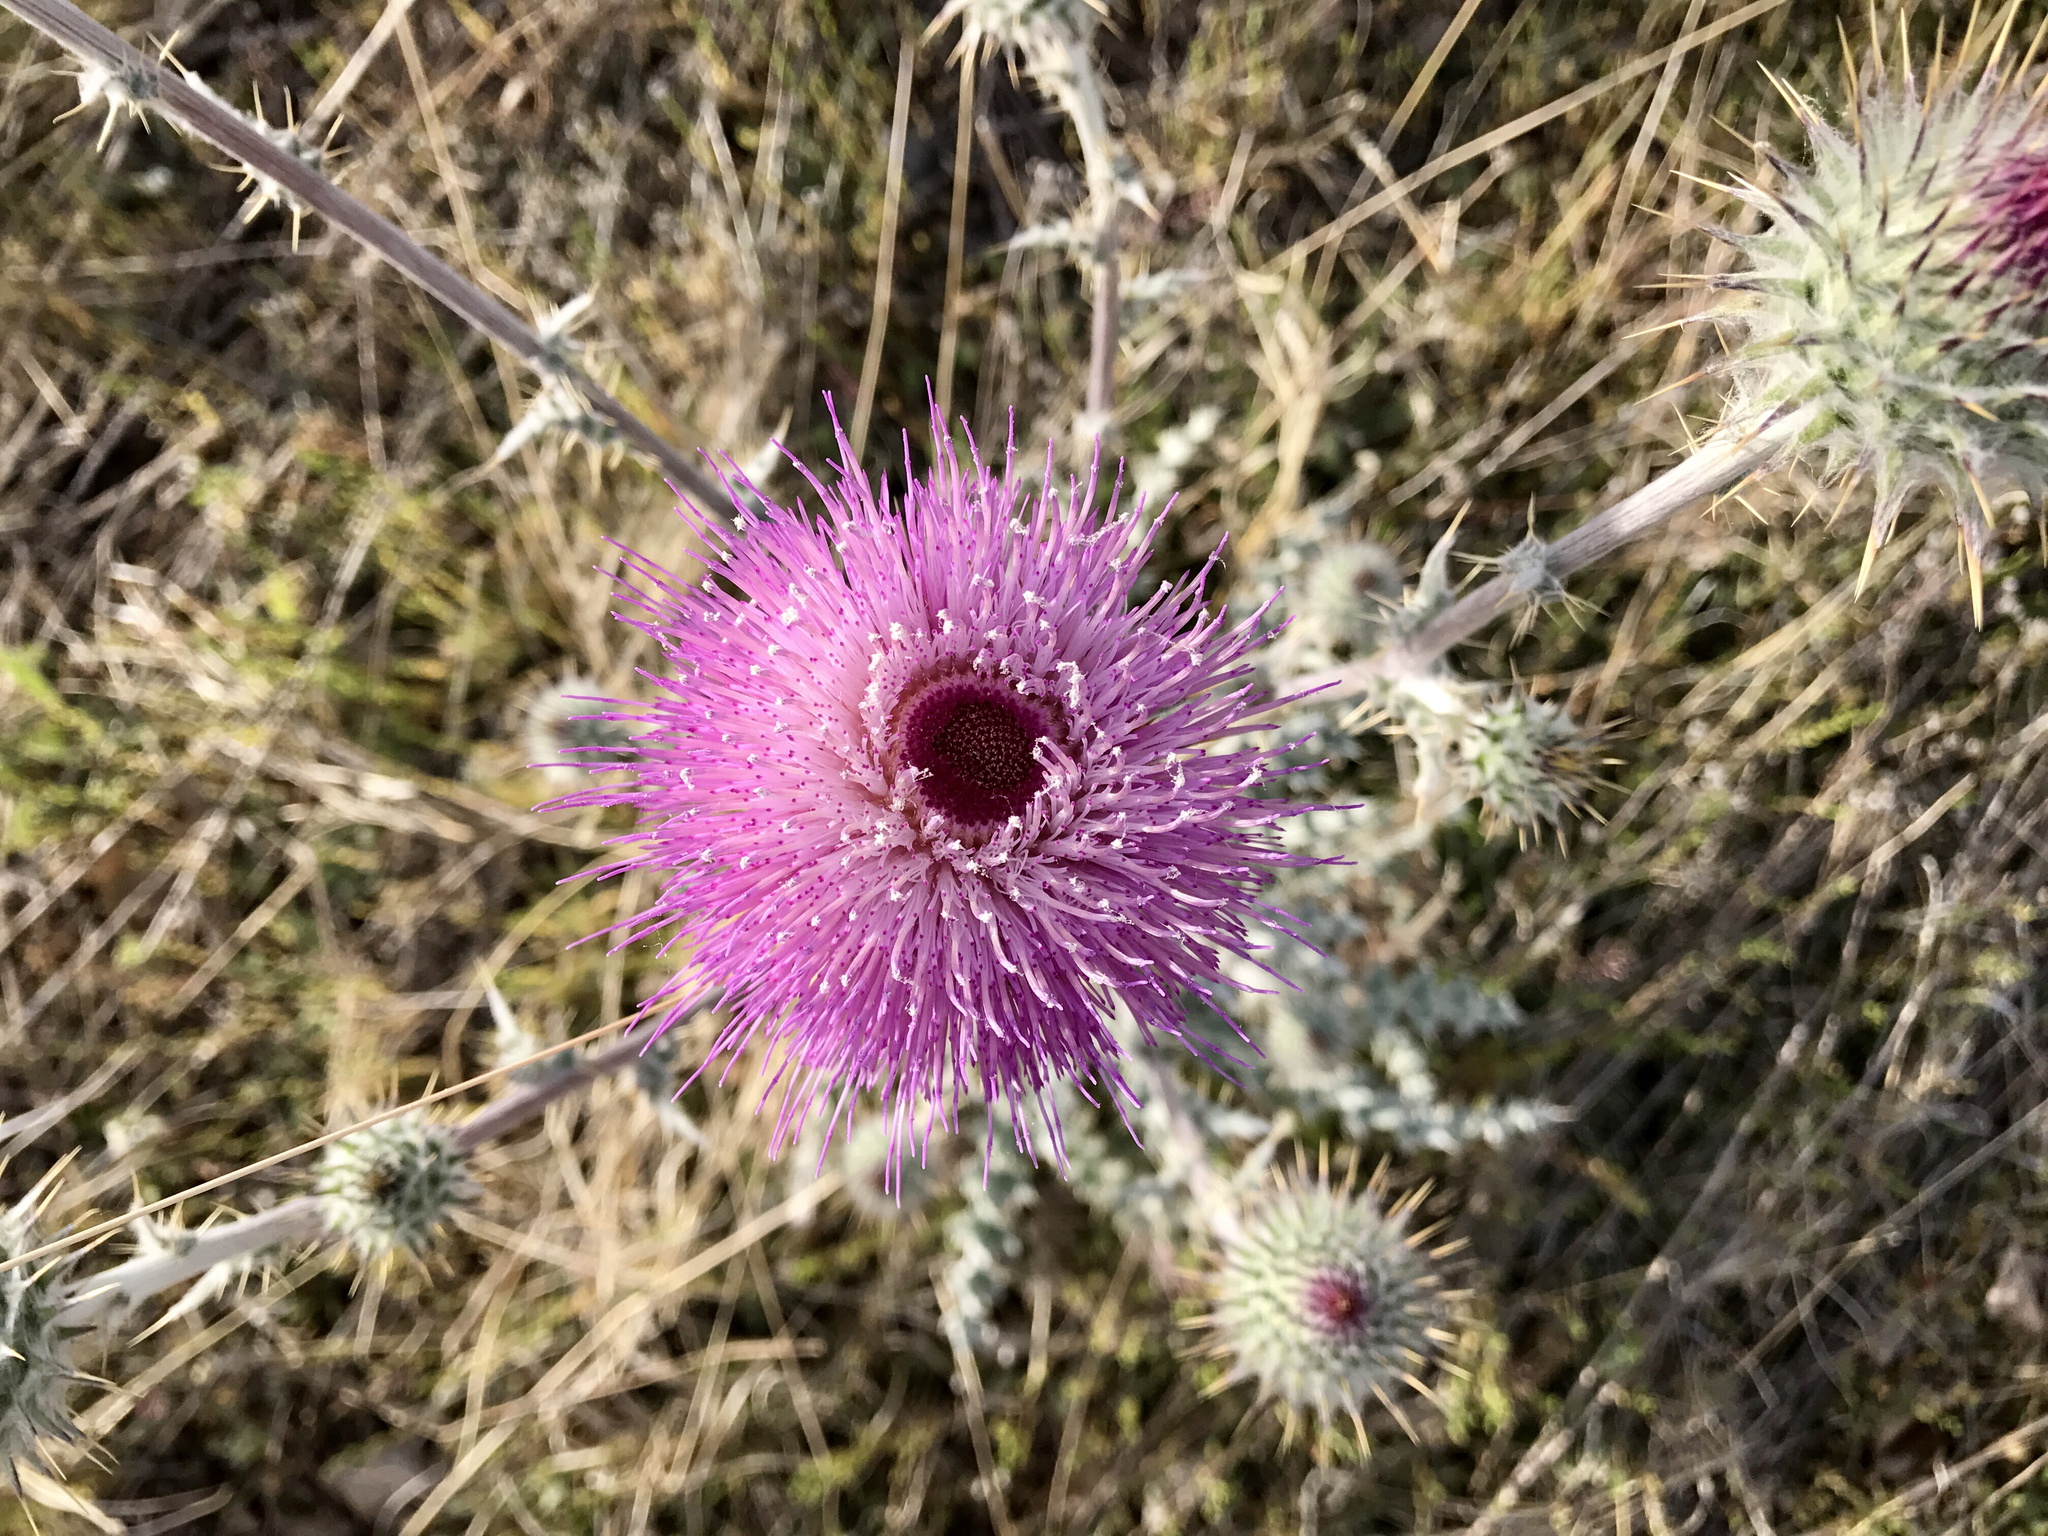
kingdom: Plantae
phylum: Tracheophyta
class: Magnoliopsida
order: Asterales
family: Asteraceae
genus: Cirsium
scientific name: Cirsium neomexicanum
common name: New mexico thistle
